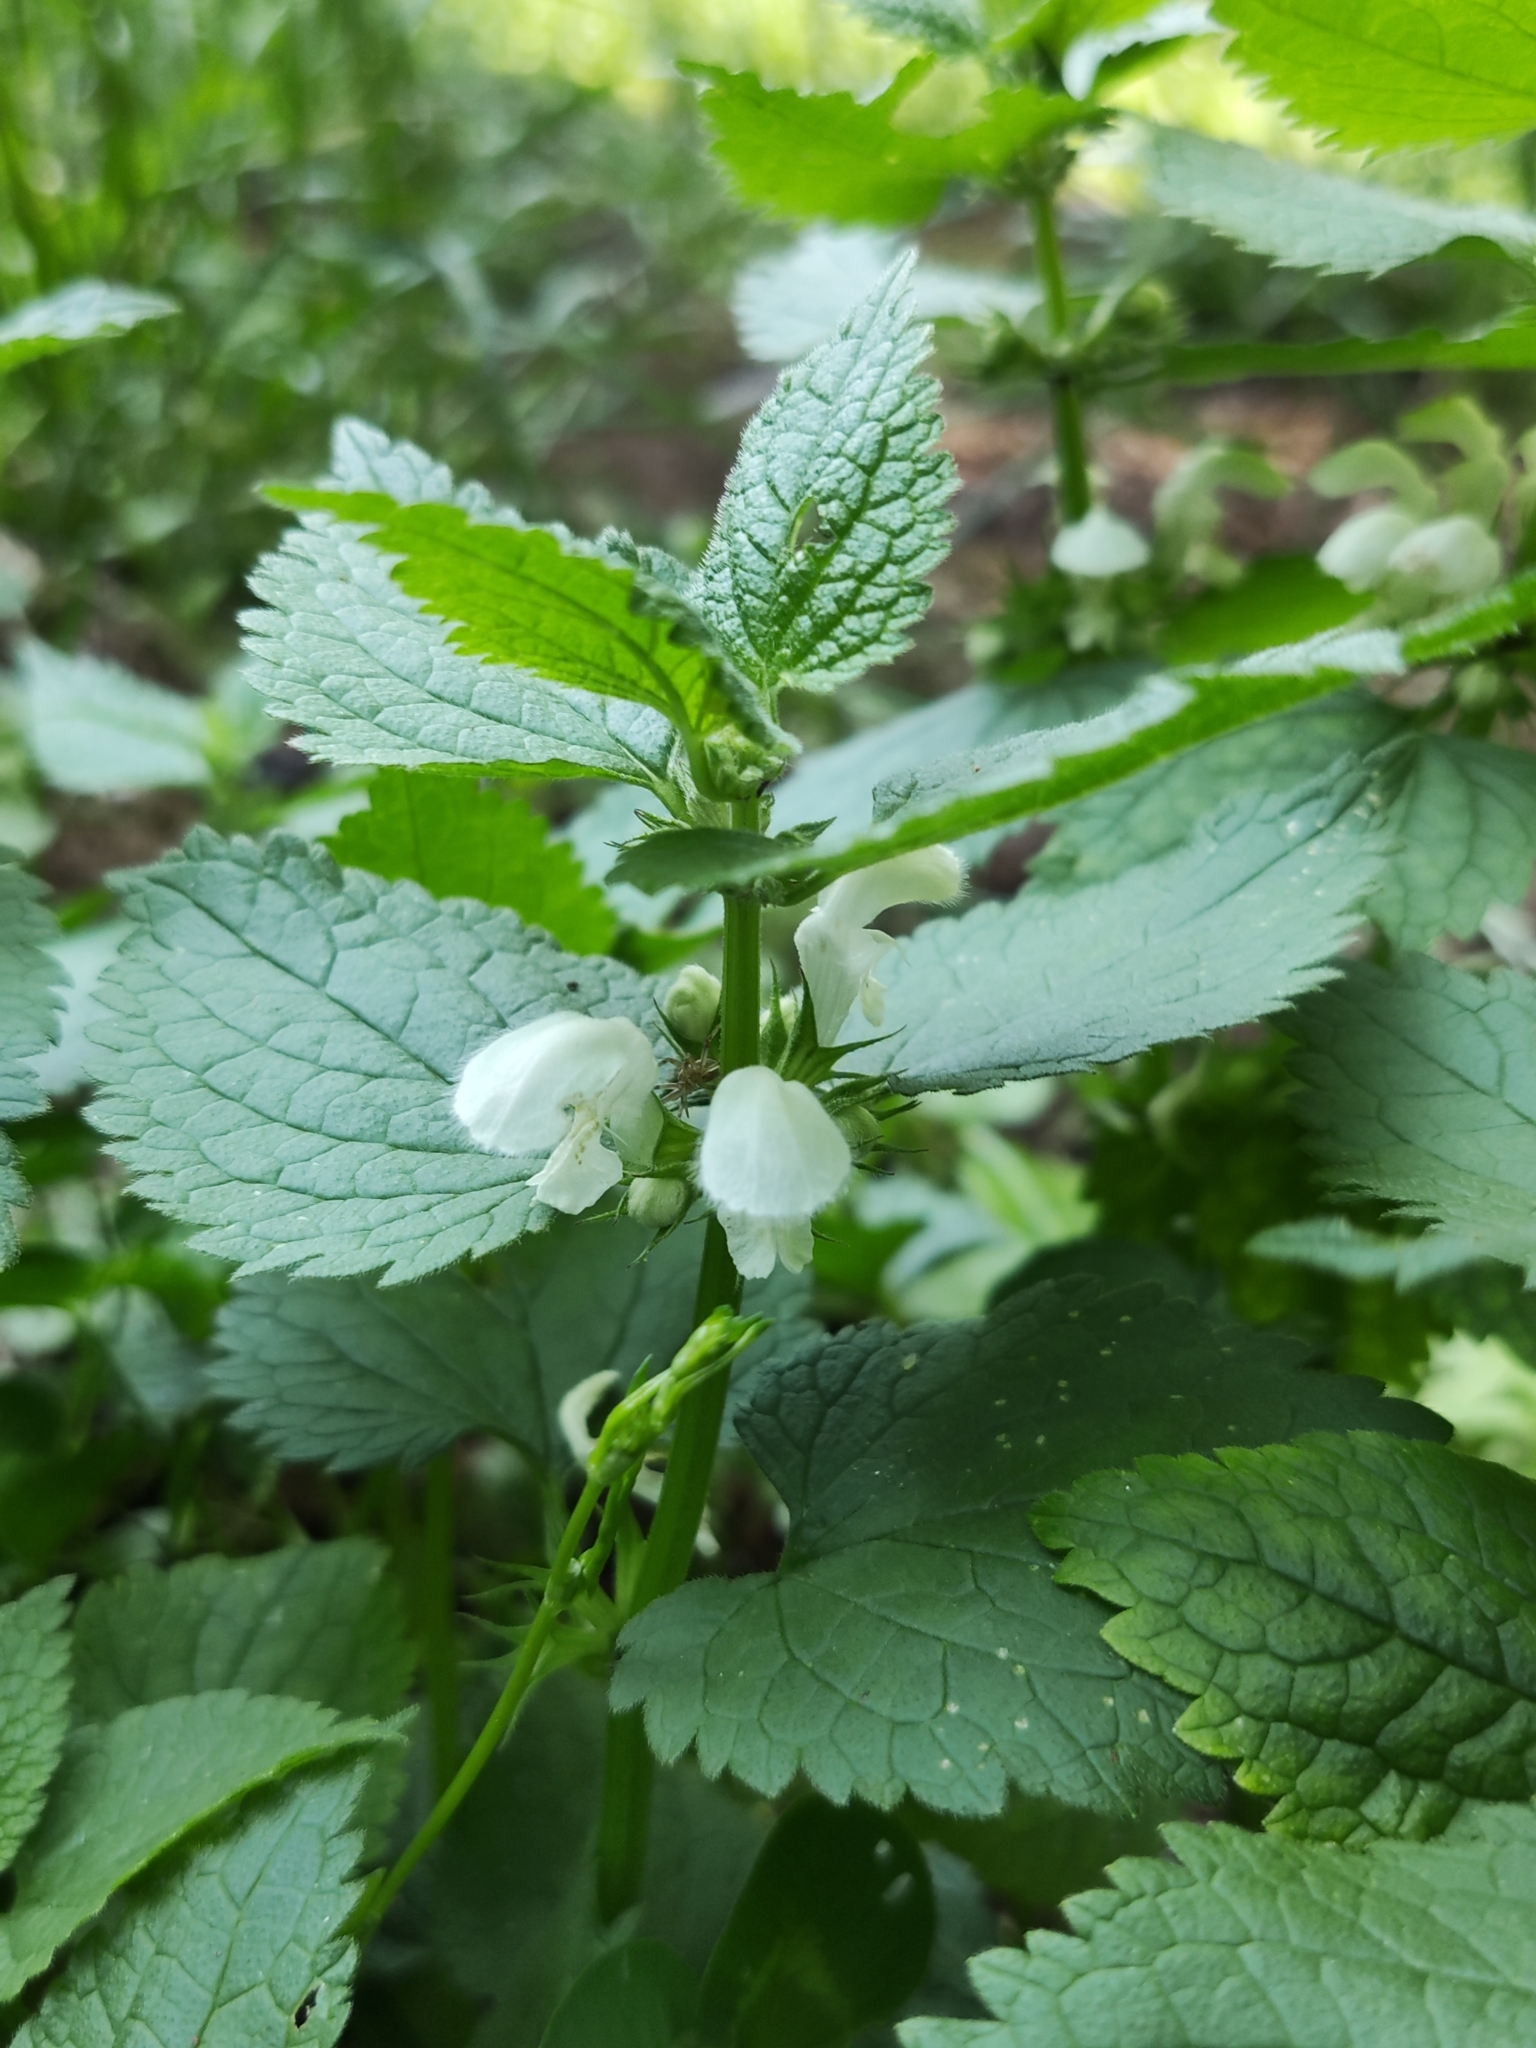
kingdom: Plantae
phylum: Tracheophyta
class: Magnoliopsida
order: Lamiales
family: Lamiaceae
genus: Lamium
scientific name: Lamium album
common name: White dead-nettle
